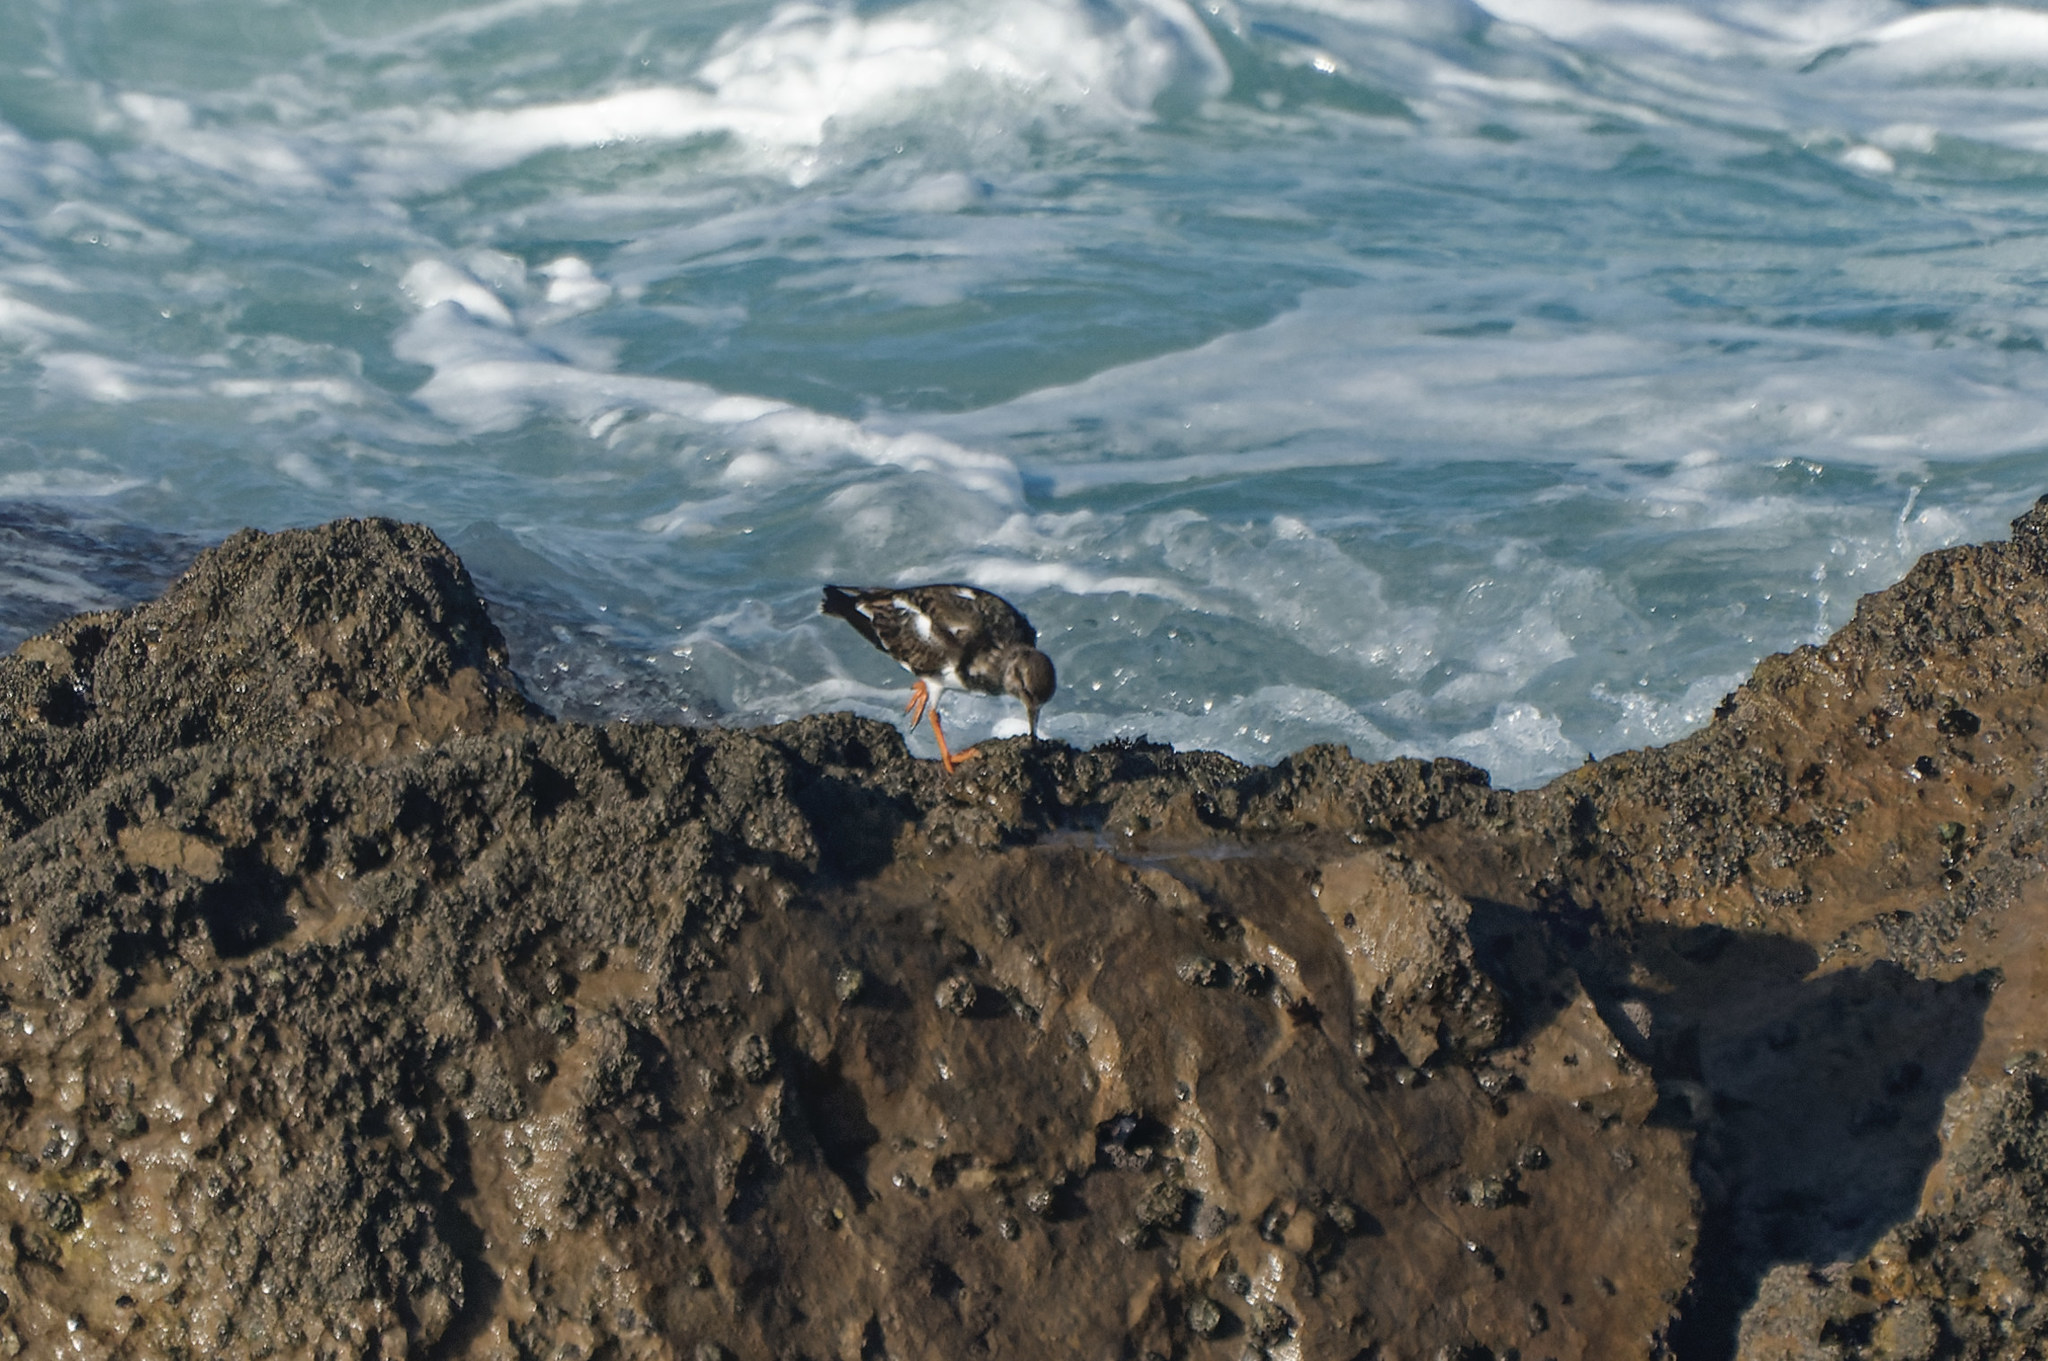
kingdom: Animalia
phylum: Chordata
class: Aves
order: Charadriiformes
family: Scolopacidae
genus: Arenaria
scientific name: Arenaria interpres
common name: Ruddy turnstone
